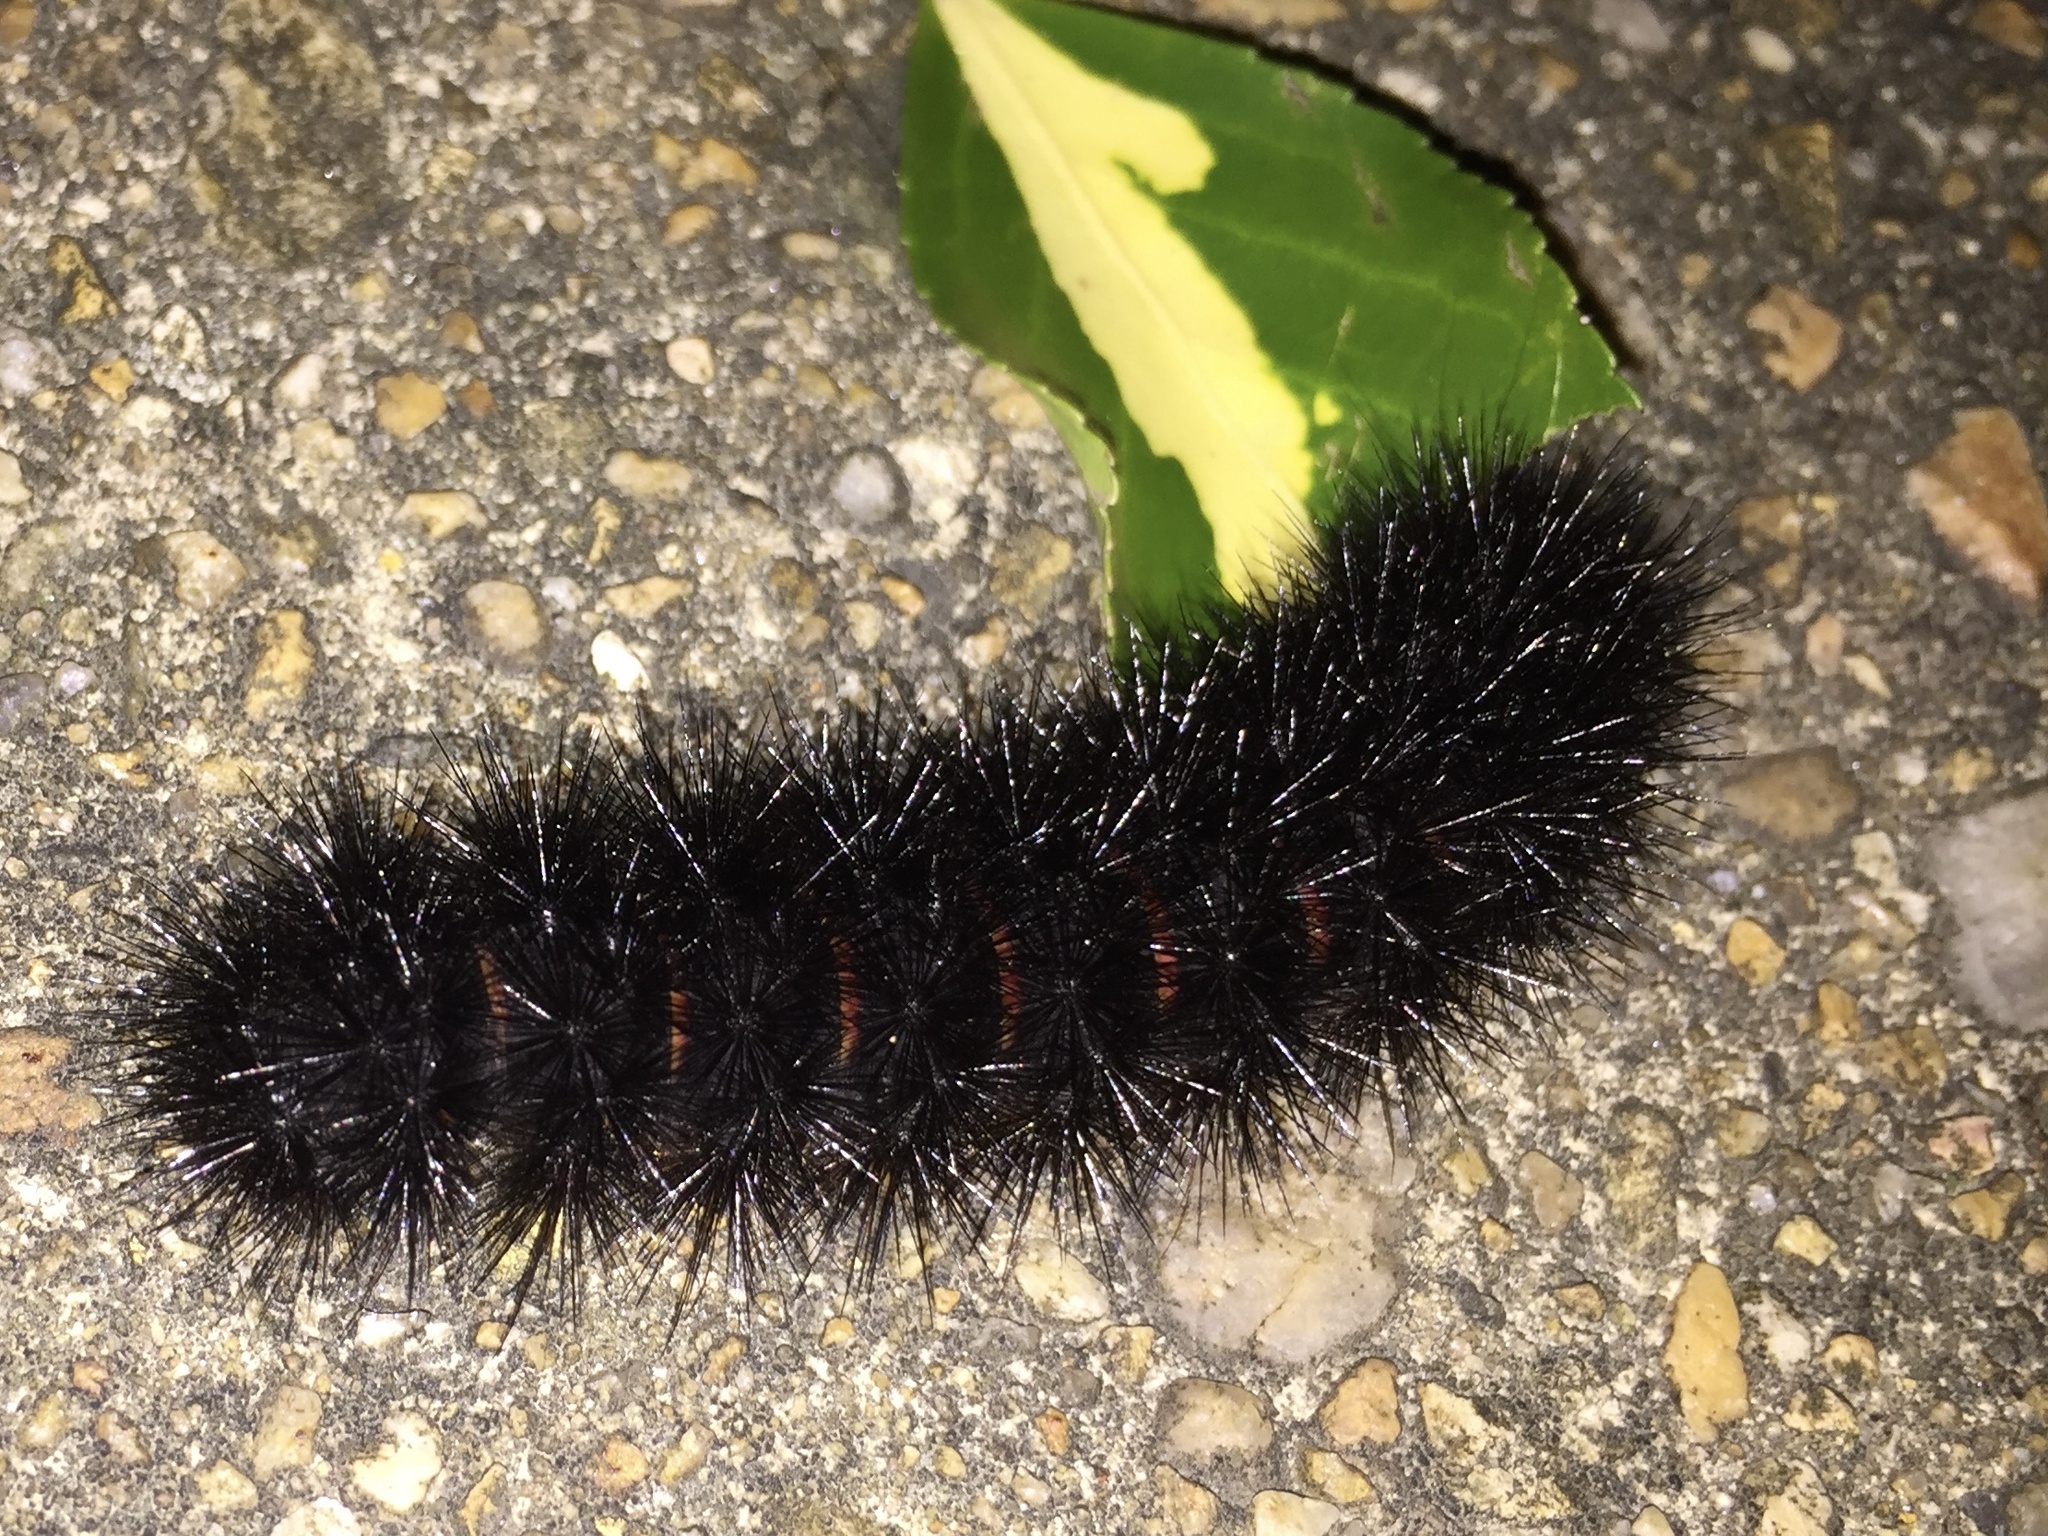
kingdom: Animalia
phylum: Arthropoda
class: Insecta
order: Lepidoptera
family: Erebidae
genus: Hypercompe
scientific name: Hypercompe scribonia
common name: Giant leopard moth
